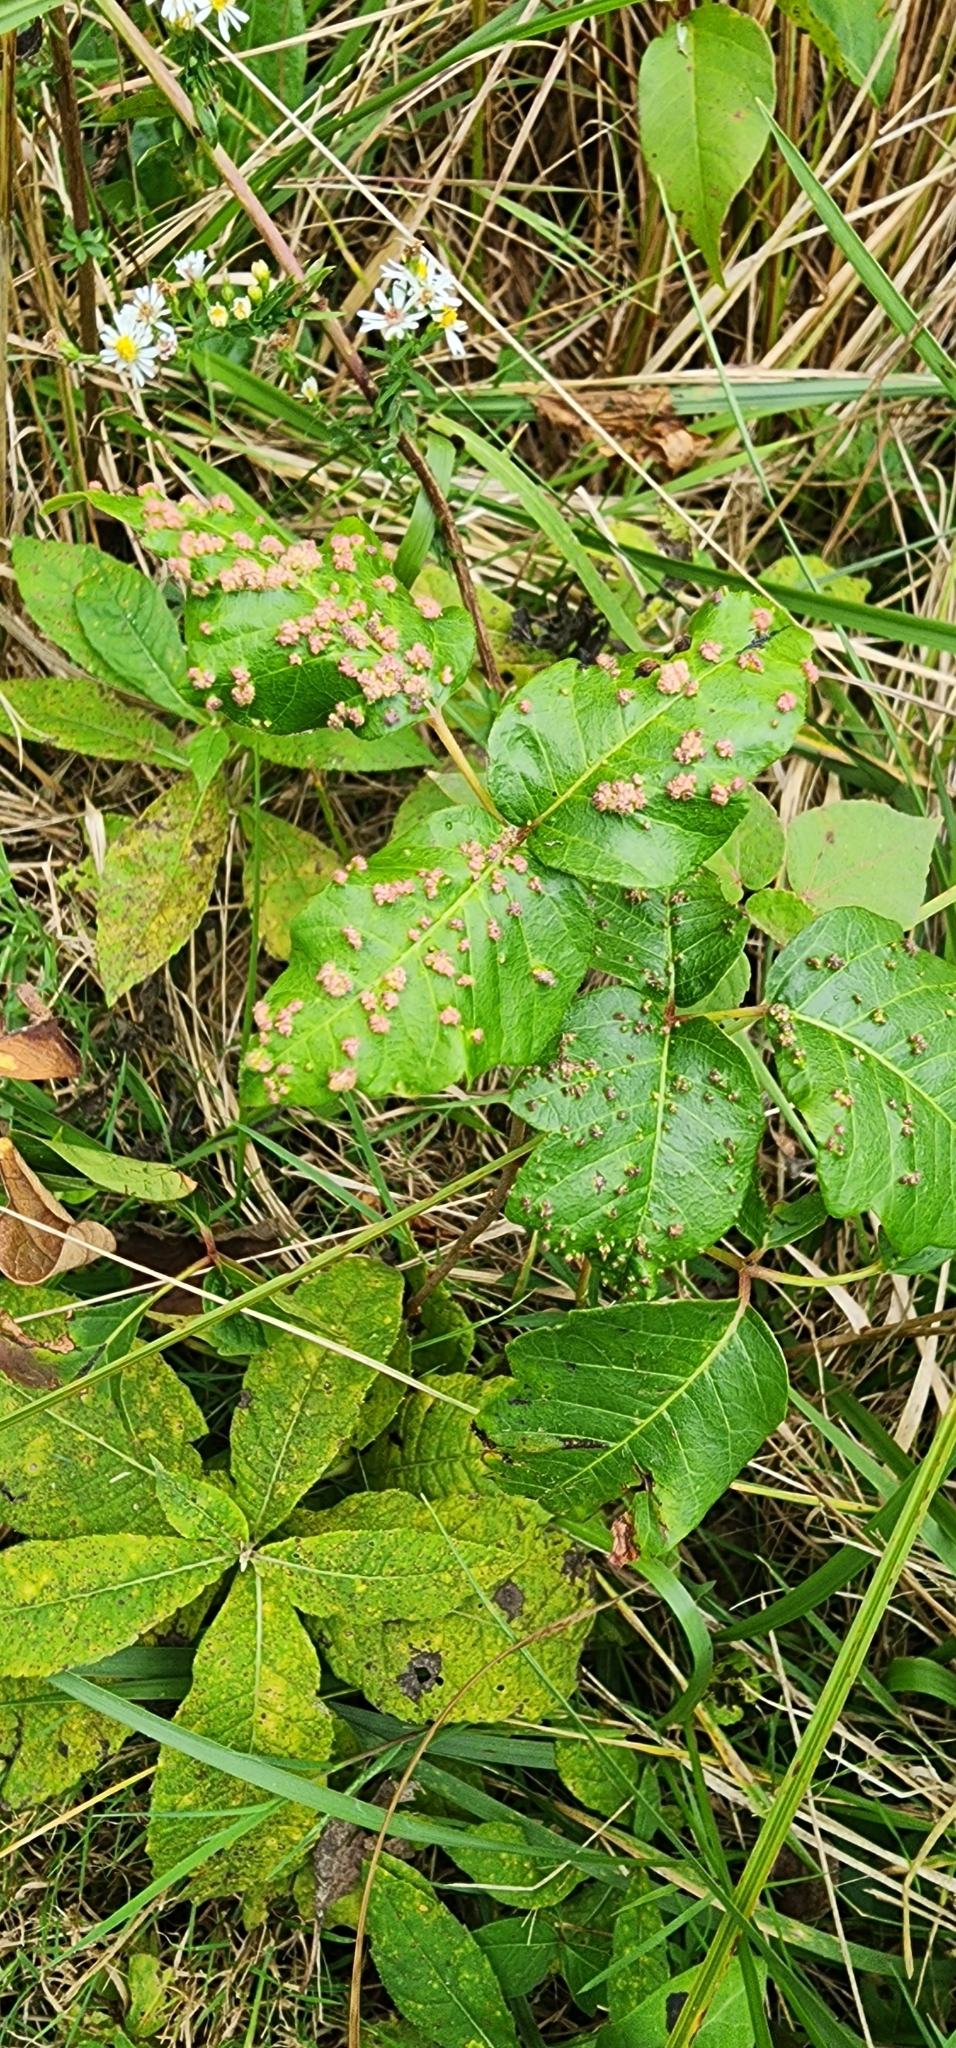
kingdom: Animalia
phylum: Arthropoda
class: Arachnida
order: Trombidiformes
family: Eriophyidae
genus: Aculops
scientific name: Aculops
